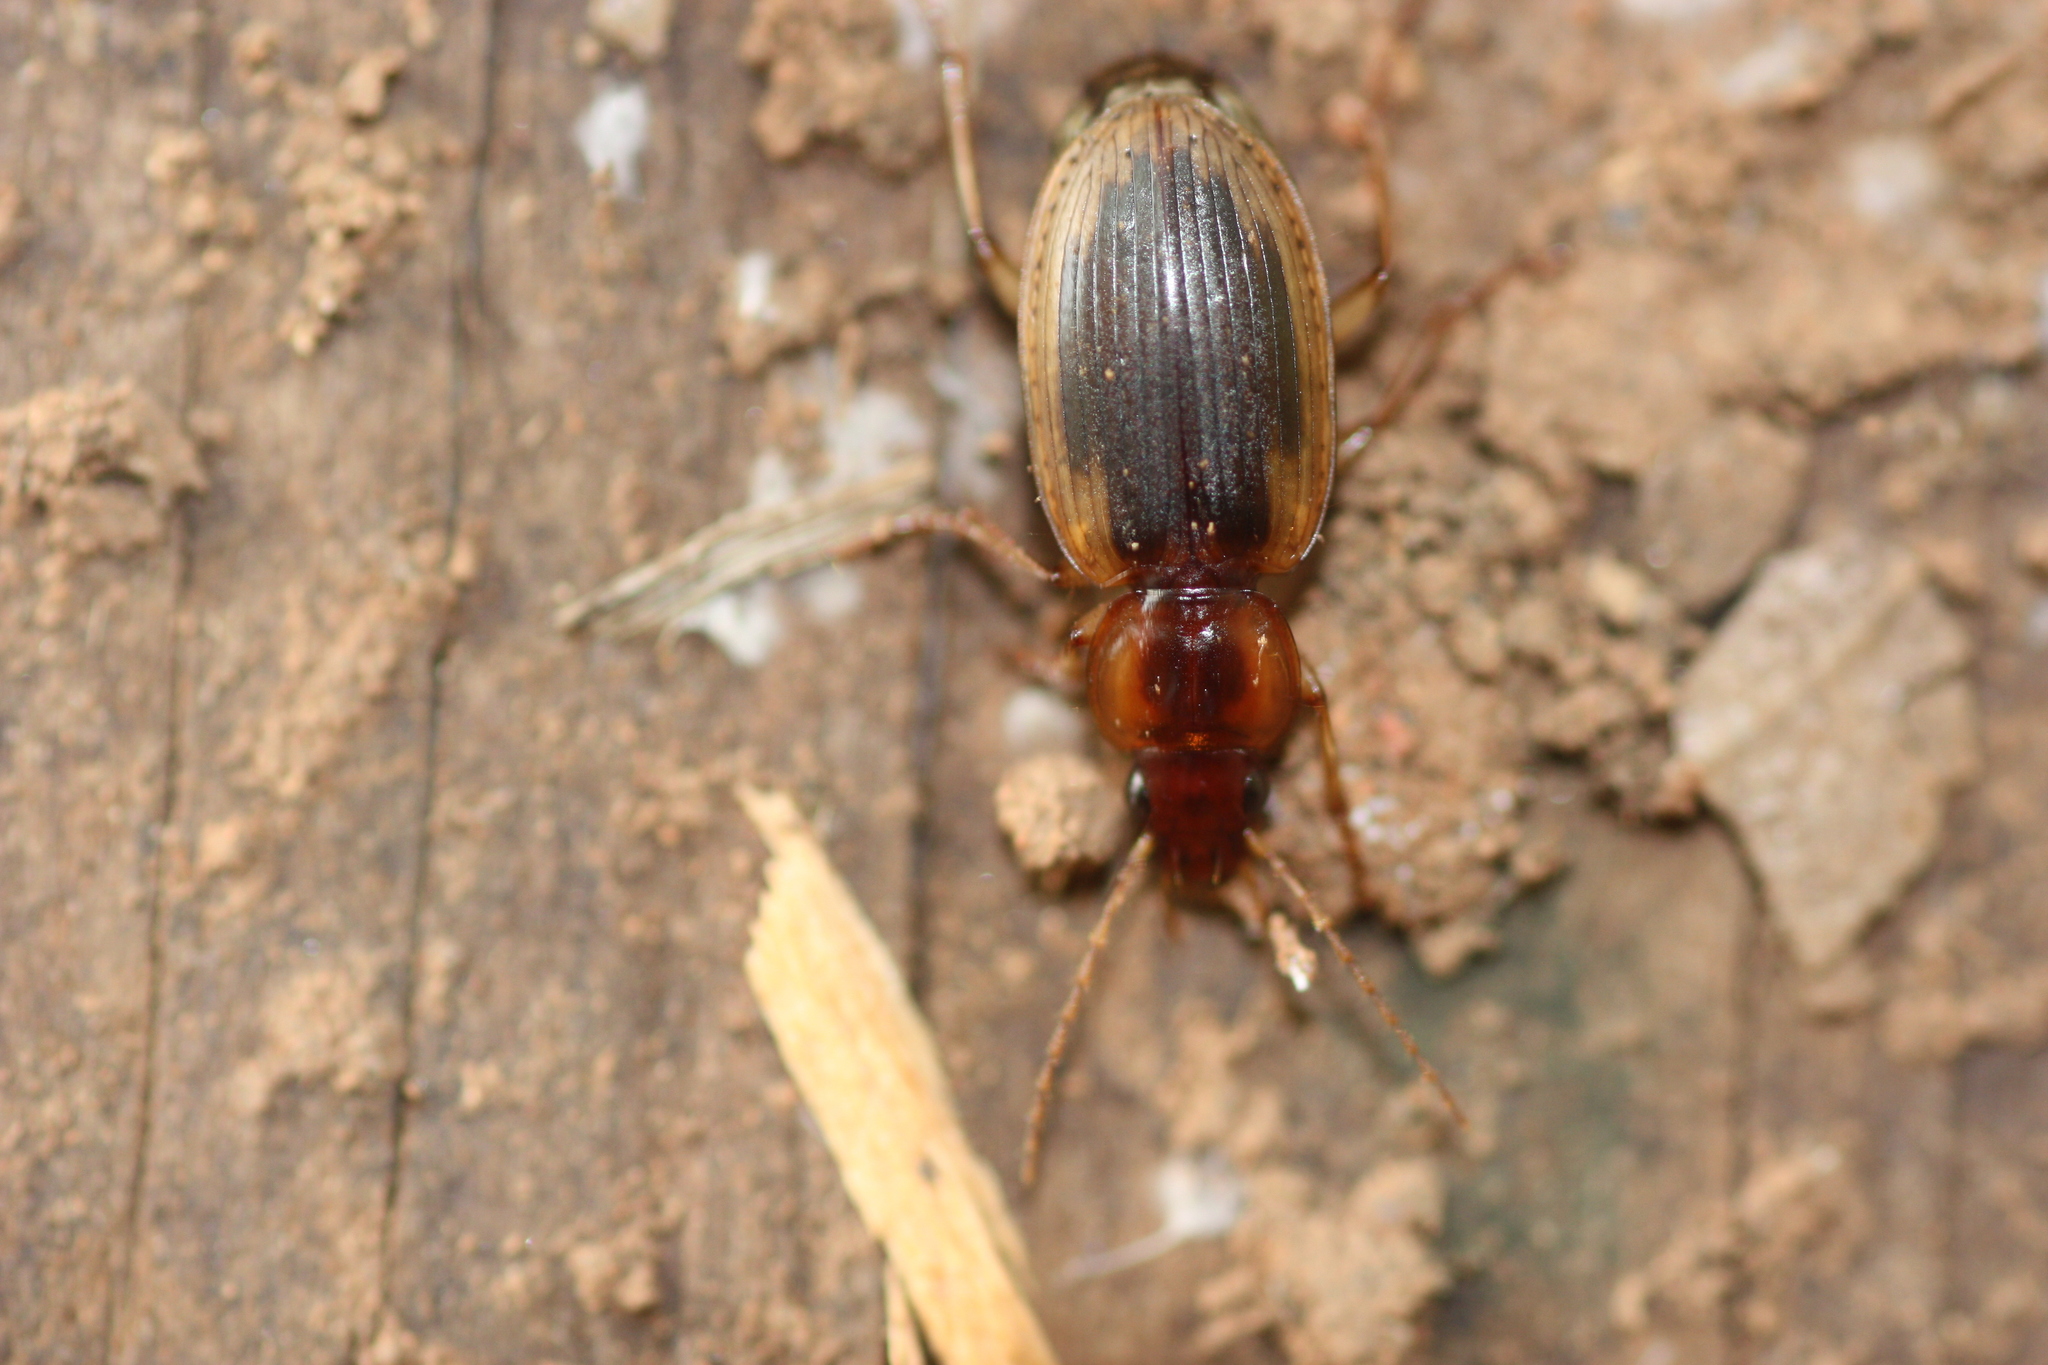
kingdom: Animalia
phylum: Arthropoda
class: Insecta
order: Coleoptera
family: Carabidae
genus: Tanystoma
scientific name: Tanystoma maculicolle
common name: Tule beetle
